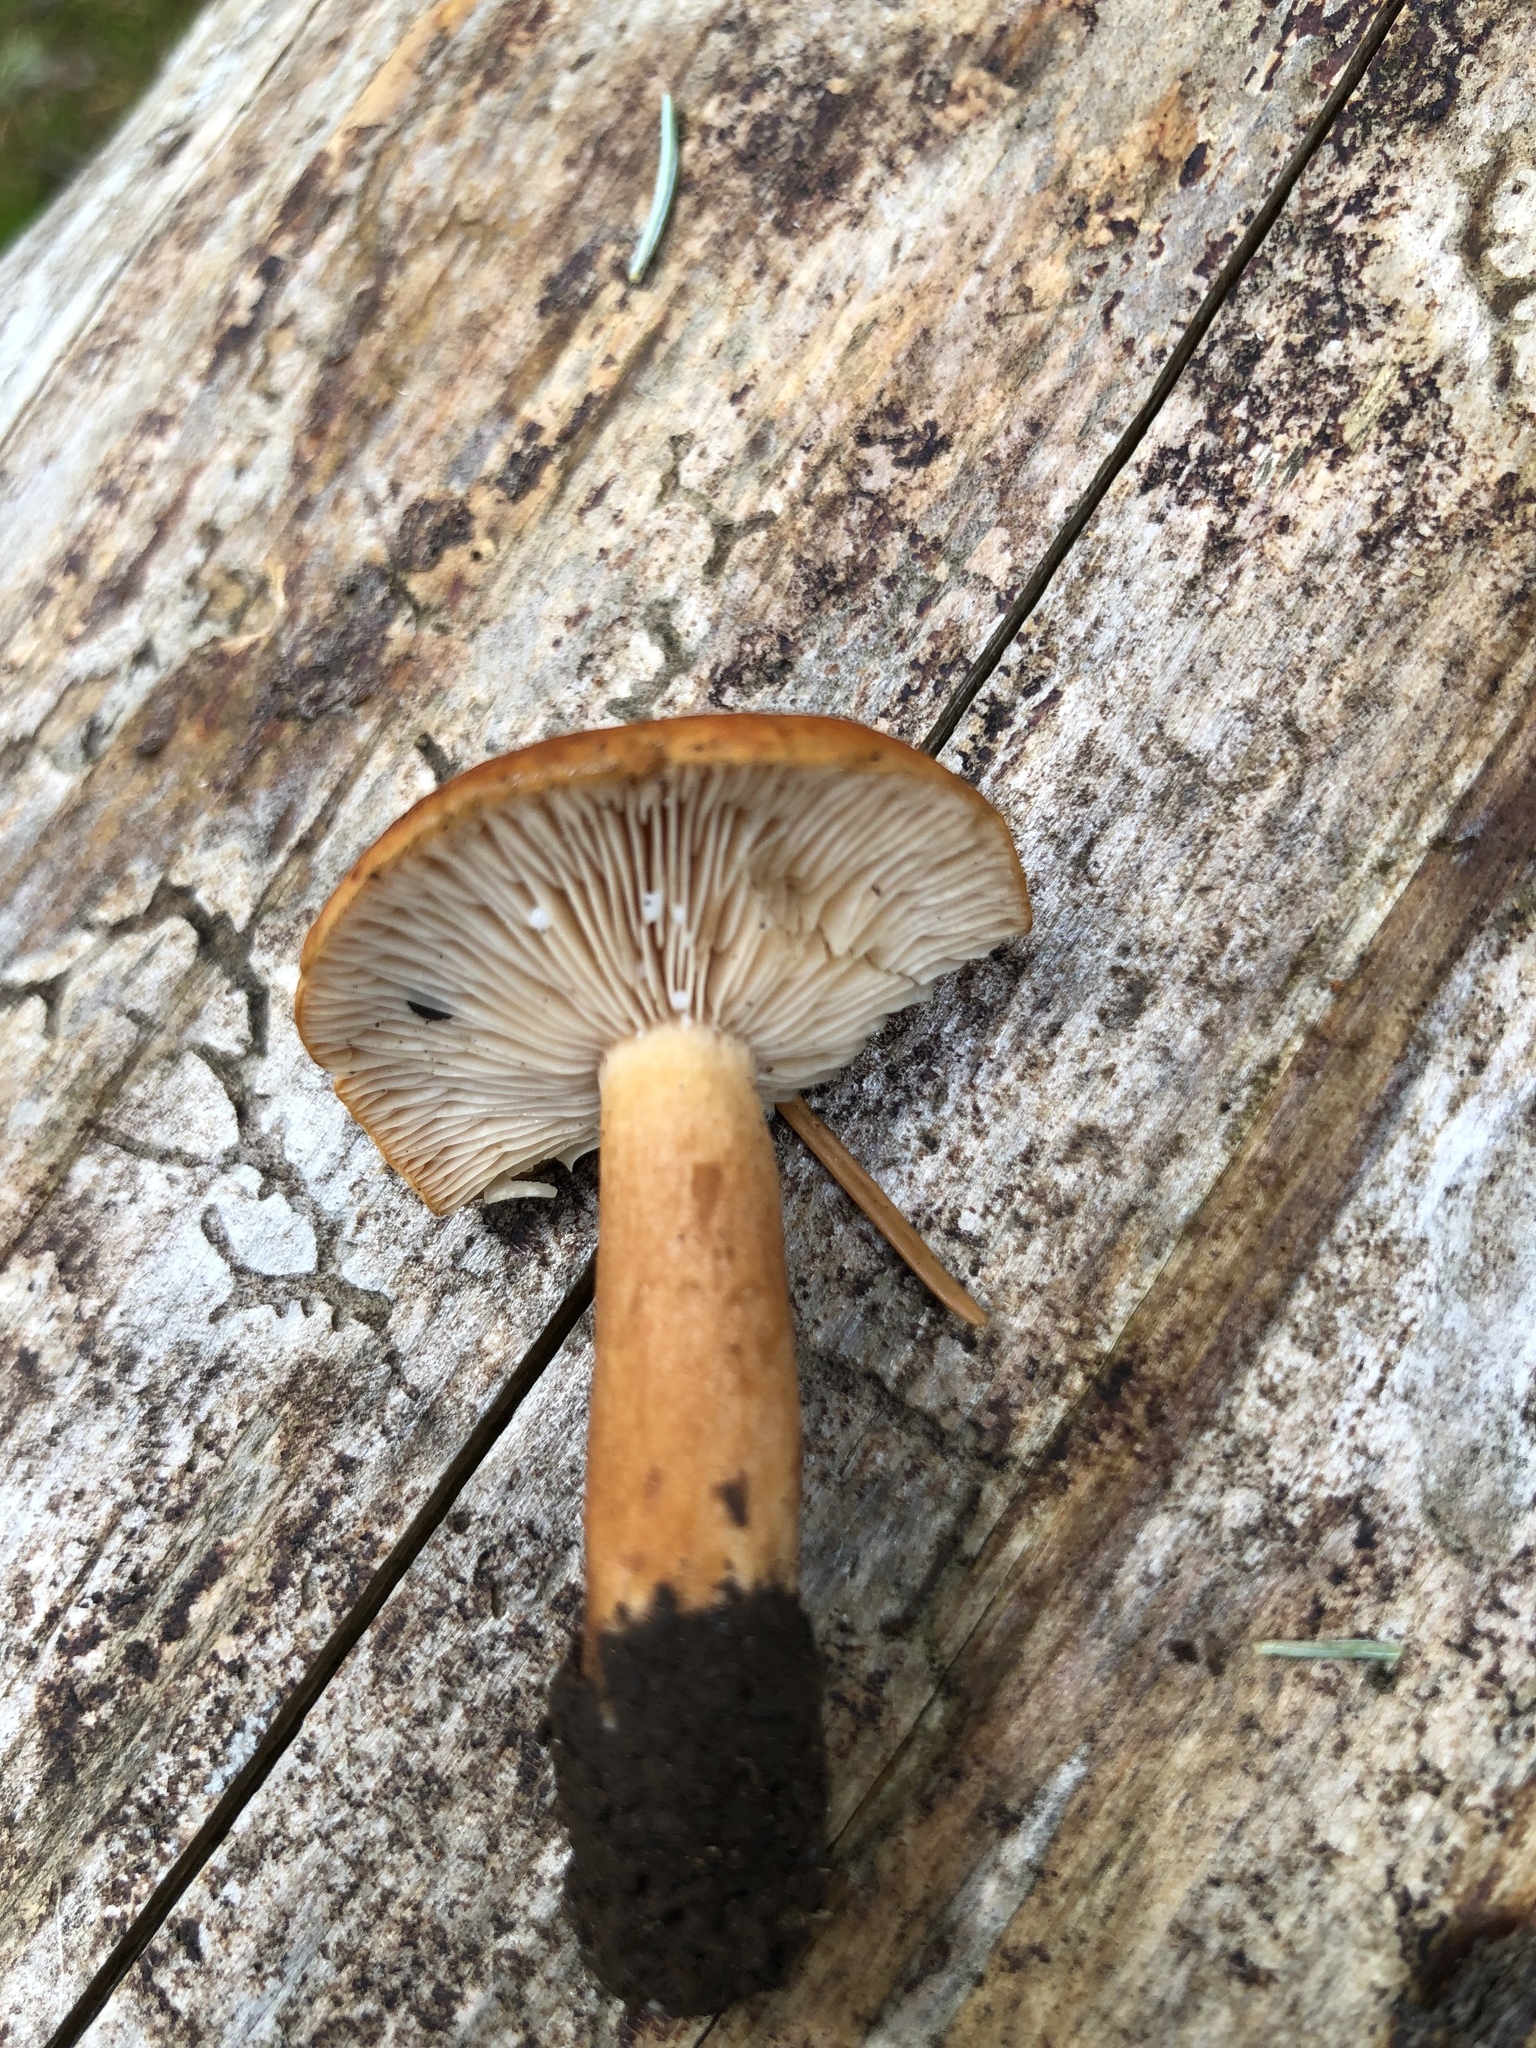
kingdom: Fungi
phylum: Basidiomycota
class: Agaricomycetes
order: Russulales
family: Russulaceae
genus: Lactarius
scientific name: Lactarius luculentus
